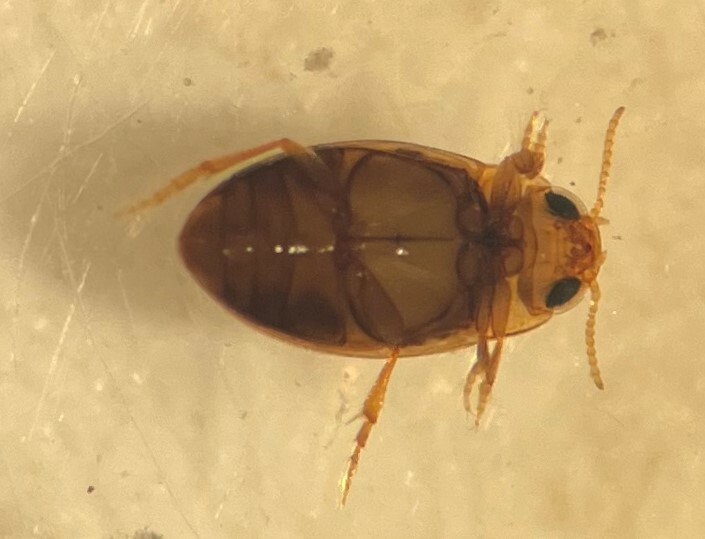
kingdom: Animalia
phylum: Arthropoda
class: Insecta
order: Coleoptera
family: Dytiscidae
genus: Neobidessus
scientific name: Neobidessus pulloides
